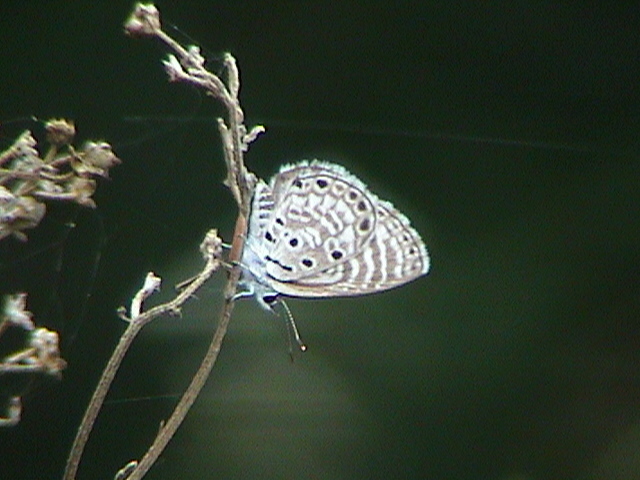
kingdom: Animalia
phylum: Arthropoda
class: Insecta
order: Lepidoptera
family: Lycaenidae
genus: Azanus
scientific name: Azanus jesous
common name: African babul blue
